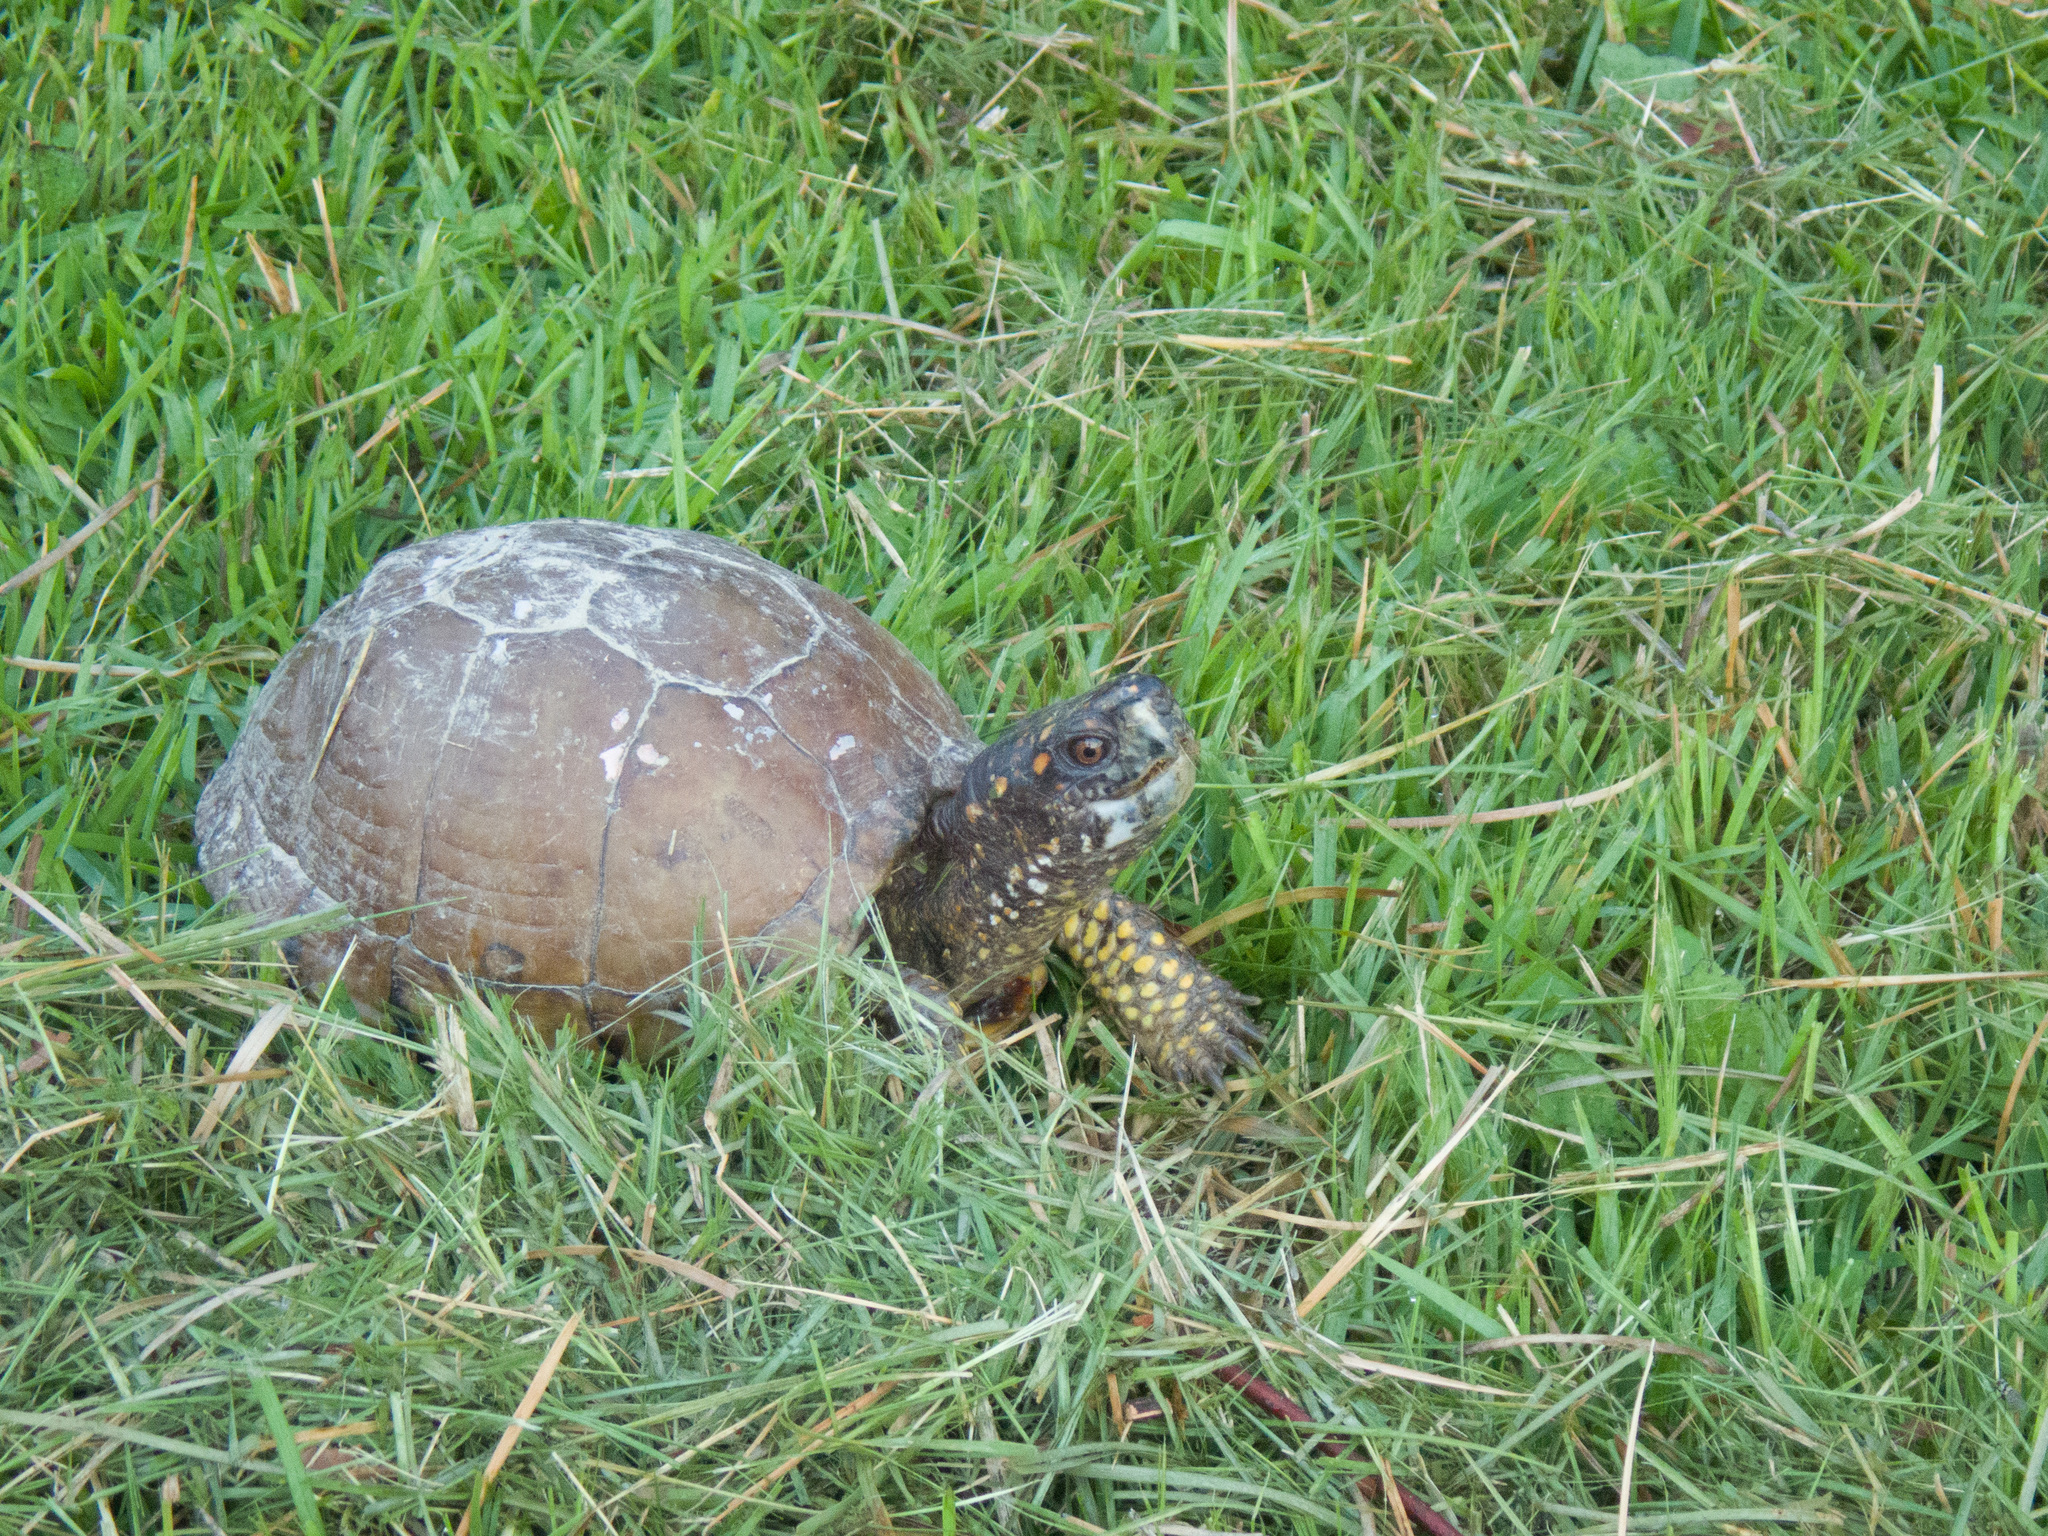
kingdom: Animalia
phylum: Chordata
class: Testudines
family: Emydidae
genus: Terrapene
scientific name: Terrapene carolina
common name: Common box turtle
